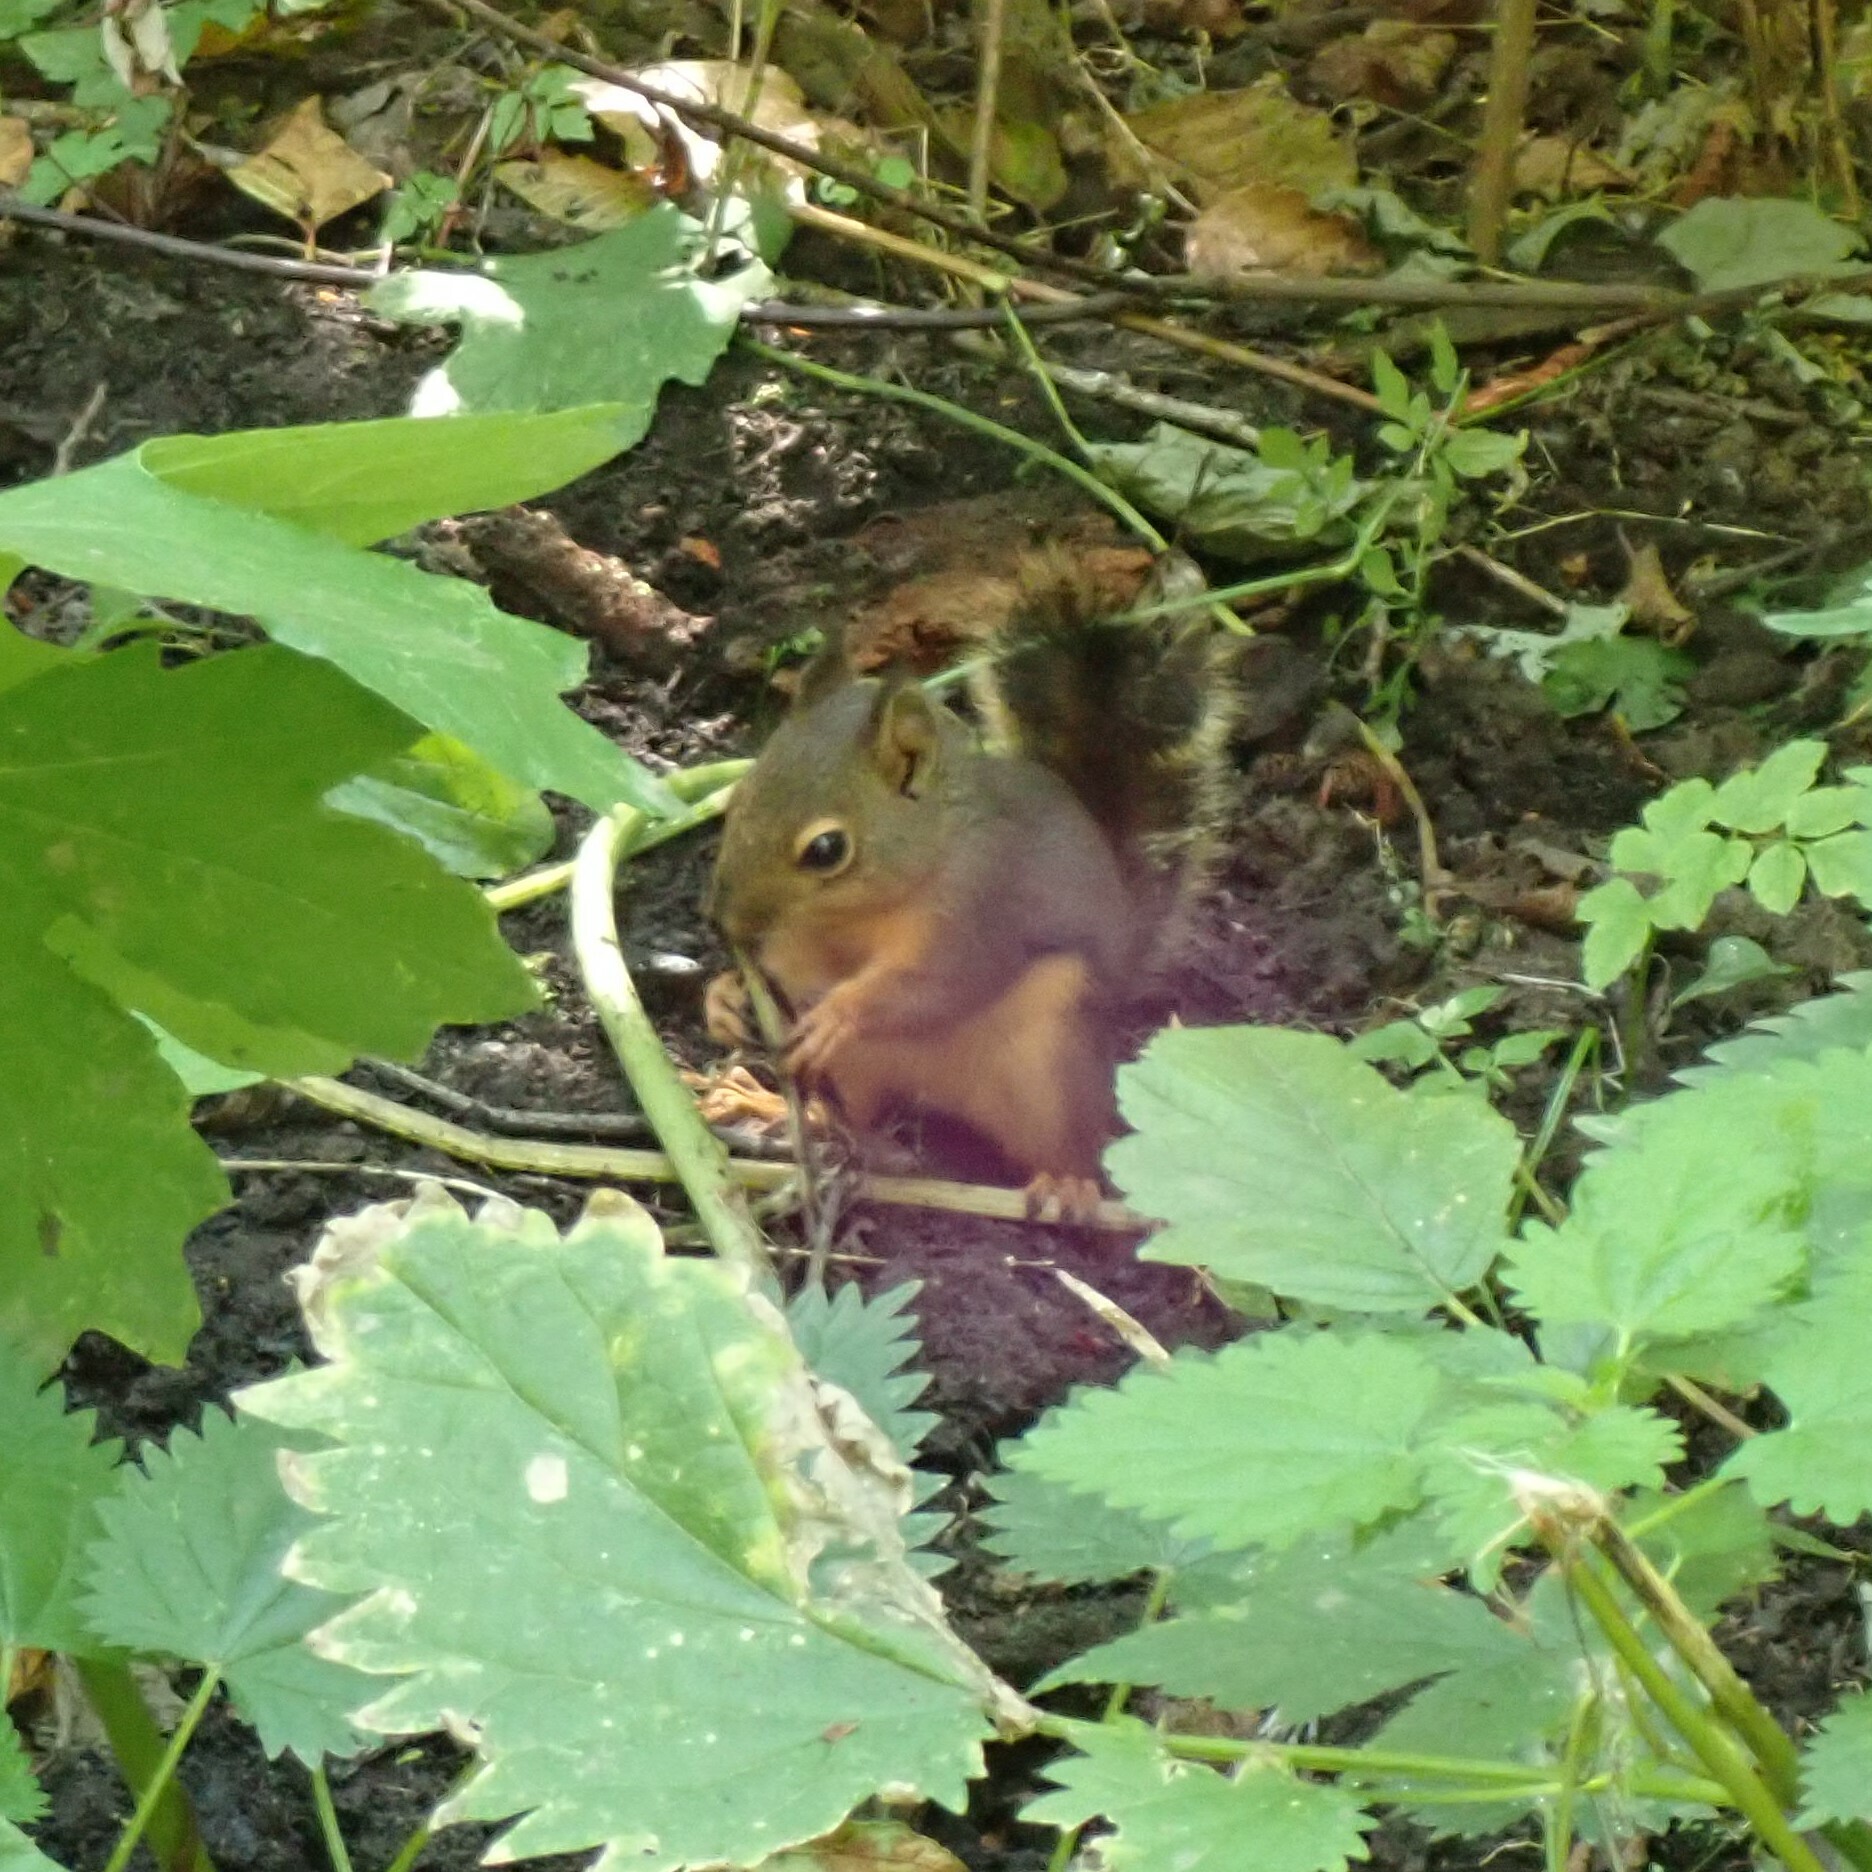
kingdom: Animalia
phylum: Chordata
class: Mammalia
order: Rodentia
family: Sciuridae
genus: Tamiasciurus
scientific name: Tamiasciurus douglasii
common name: Douglas's squirrel
